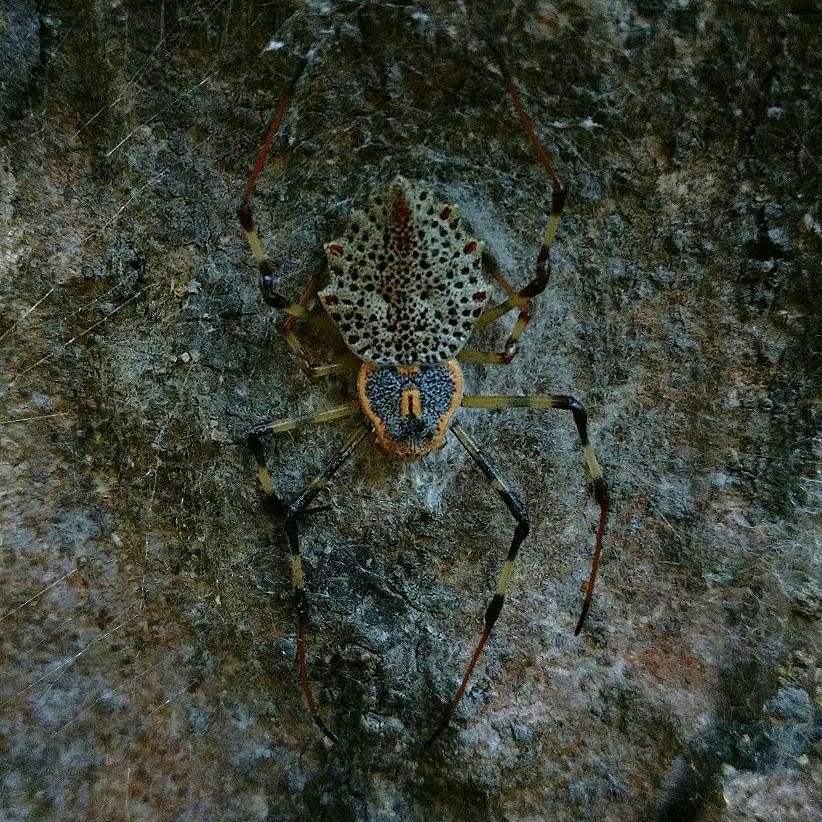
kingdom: Animalia
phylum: Arthropoda
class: Arachnida
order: Araneae
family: Araneidae
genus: Herennia
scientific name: Herennia multipuncta
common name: Spotted coin spider
